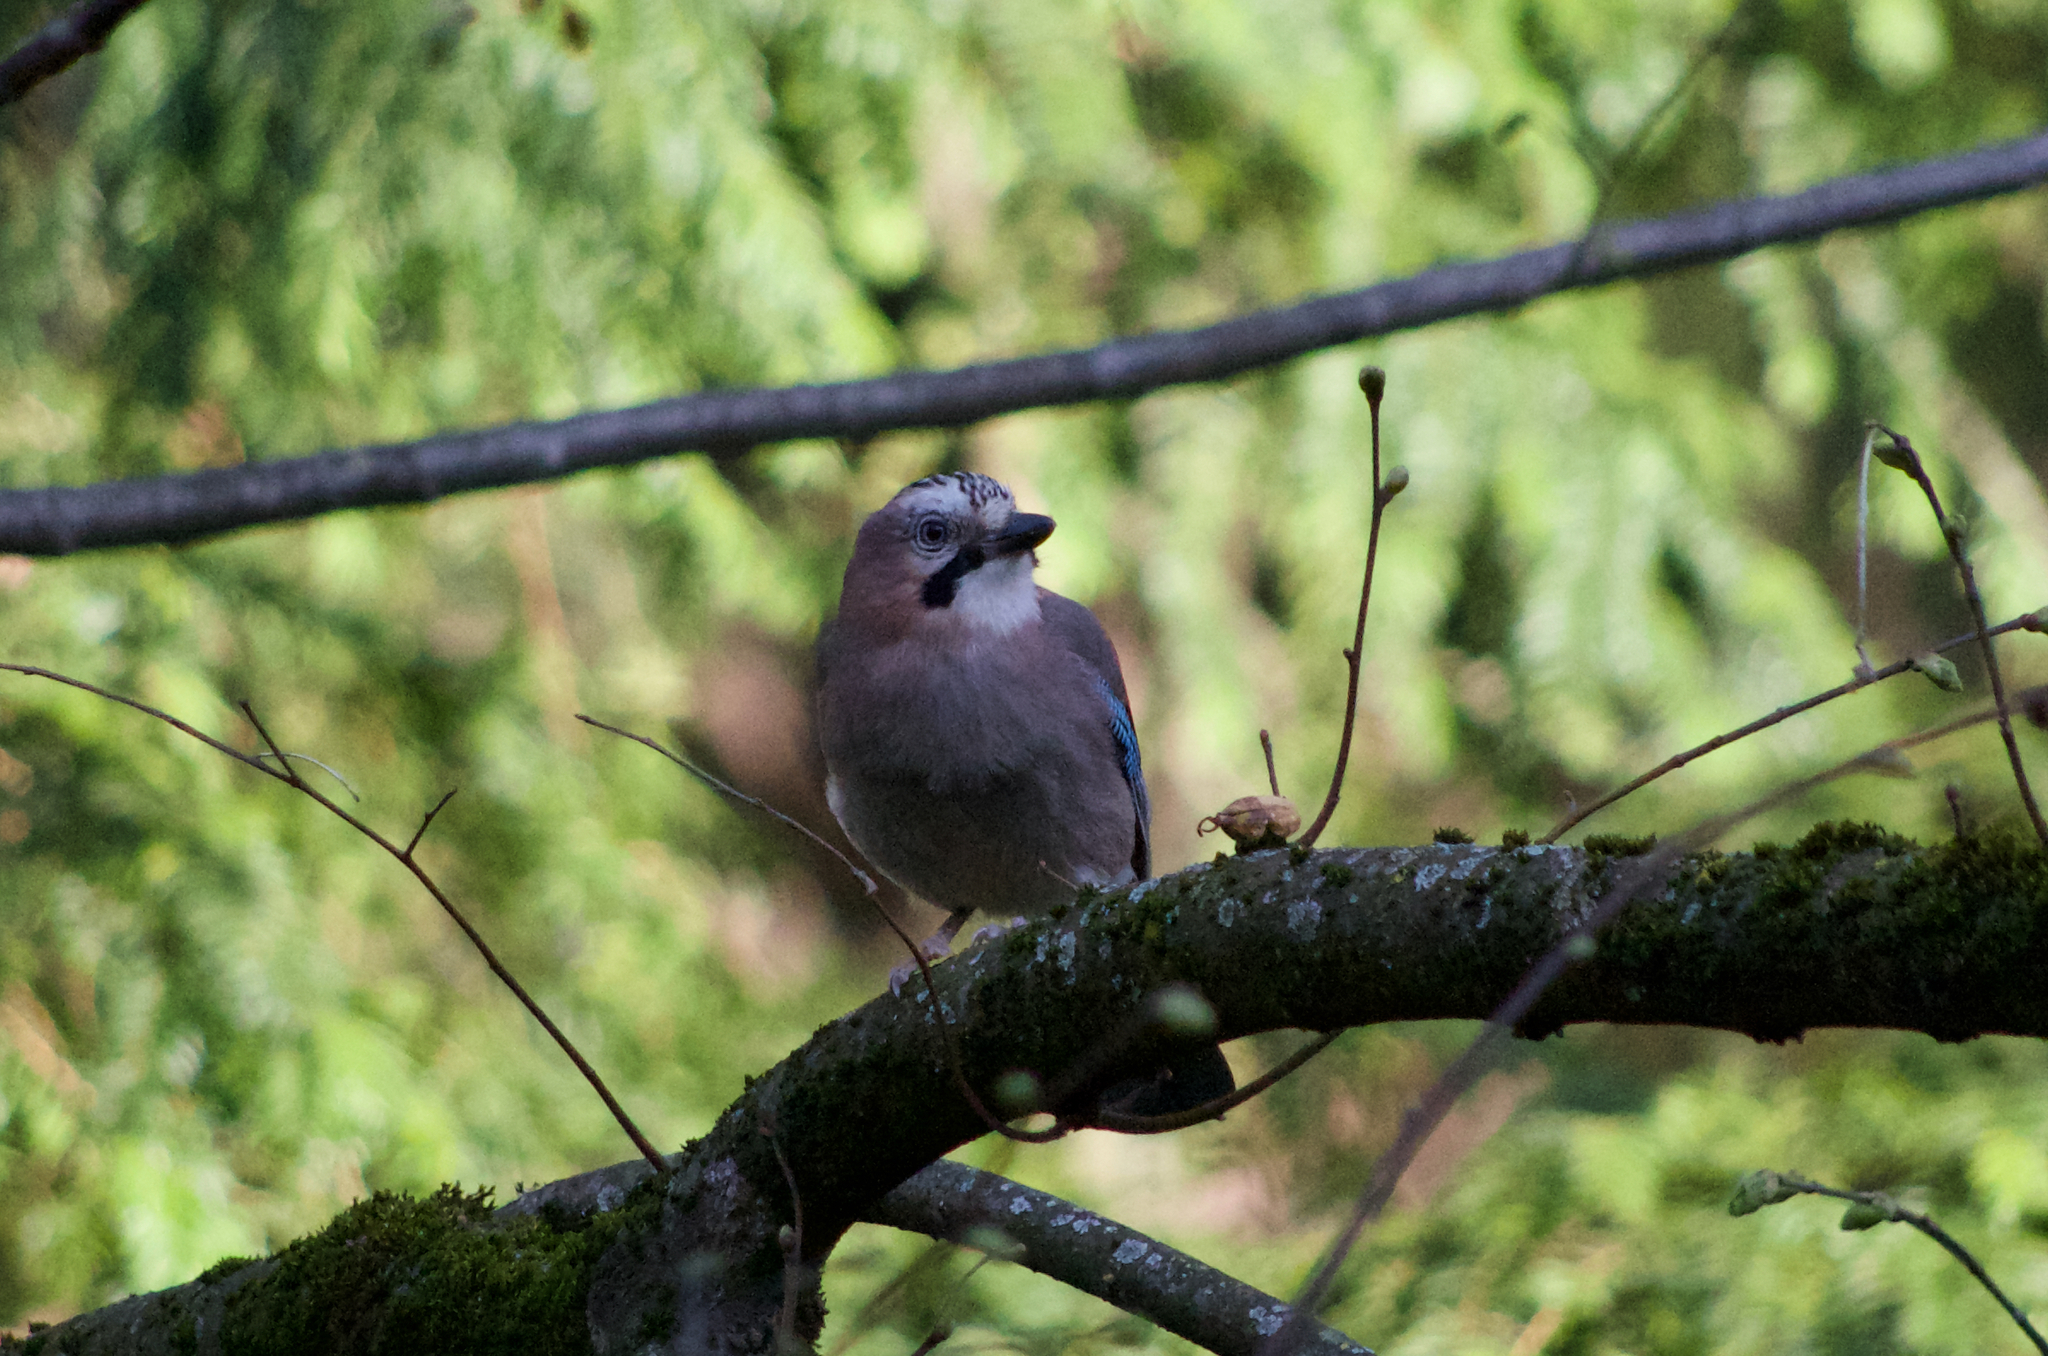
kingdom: Animalia
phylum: Chordata
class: Aves
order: Passeriformes
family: Corvidae
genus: Garrulus
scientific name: Garrulus glandarius
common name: Eurasian jay
